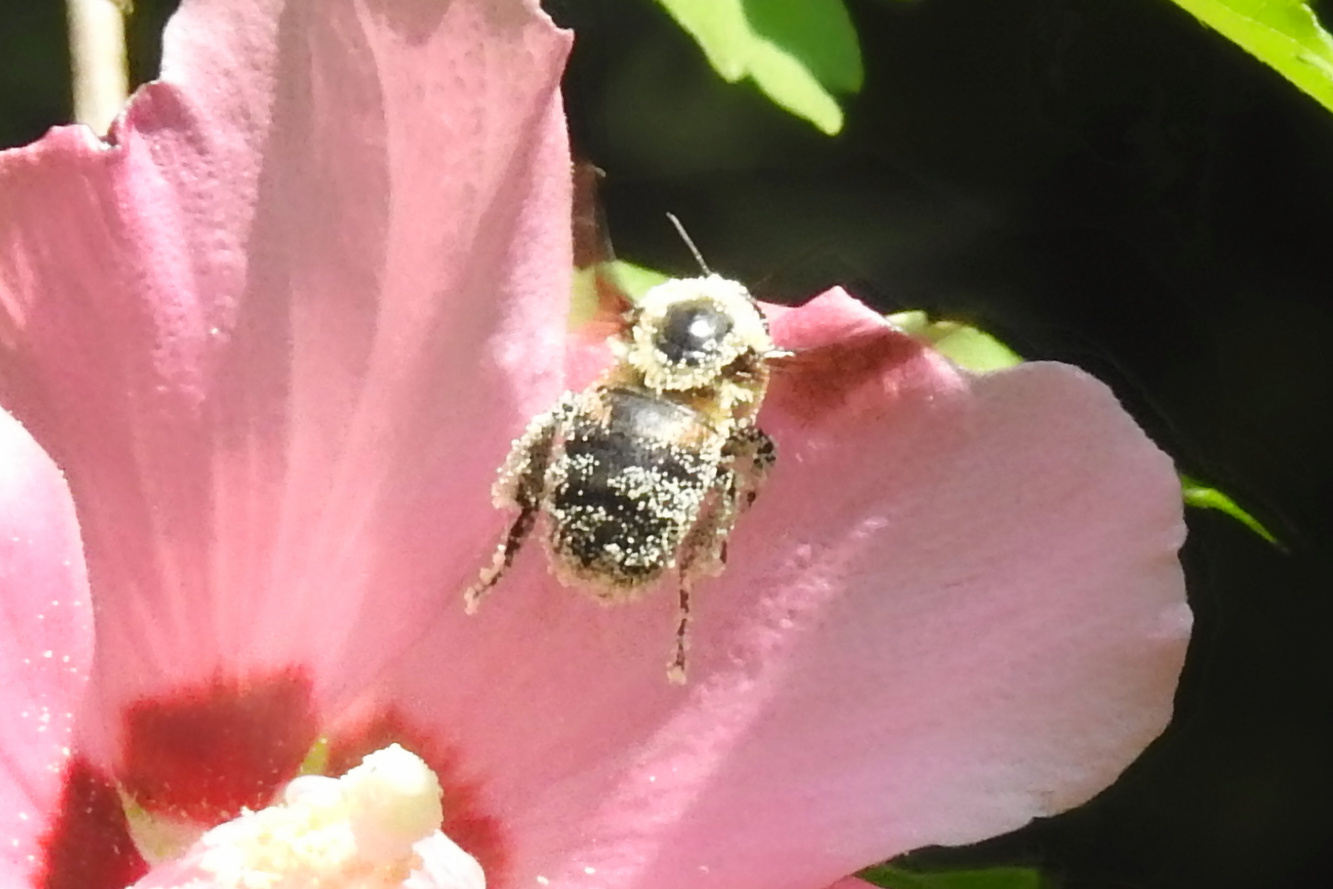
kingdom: Animalia
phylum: Arthropoda
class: Insecta
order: Hymenoptera
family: Apidae
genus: Bombus
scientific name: Bombus griseocollis
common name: Brown-belted bumble bee
